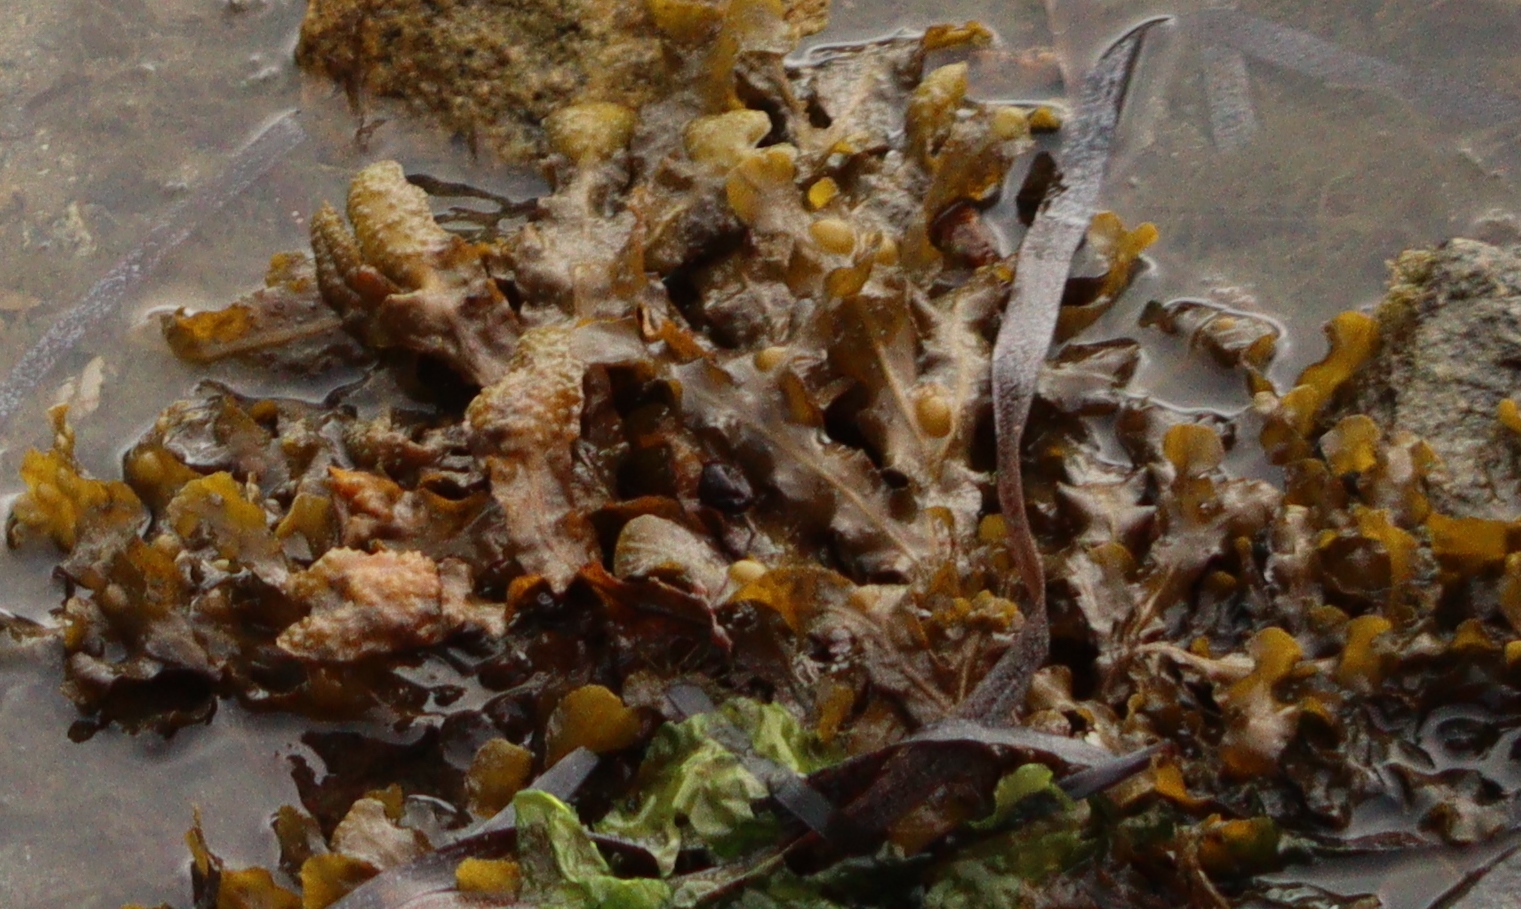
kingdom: Chromista
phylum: Ochrophyta
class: Phaeophyceae
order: Fucales
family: Fucaceae
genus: Fucus
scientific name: Fucus vesiculosus
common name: Bladder wrack
